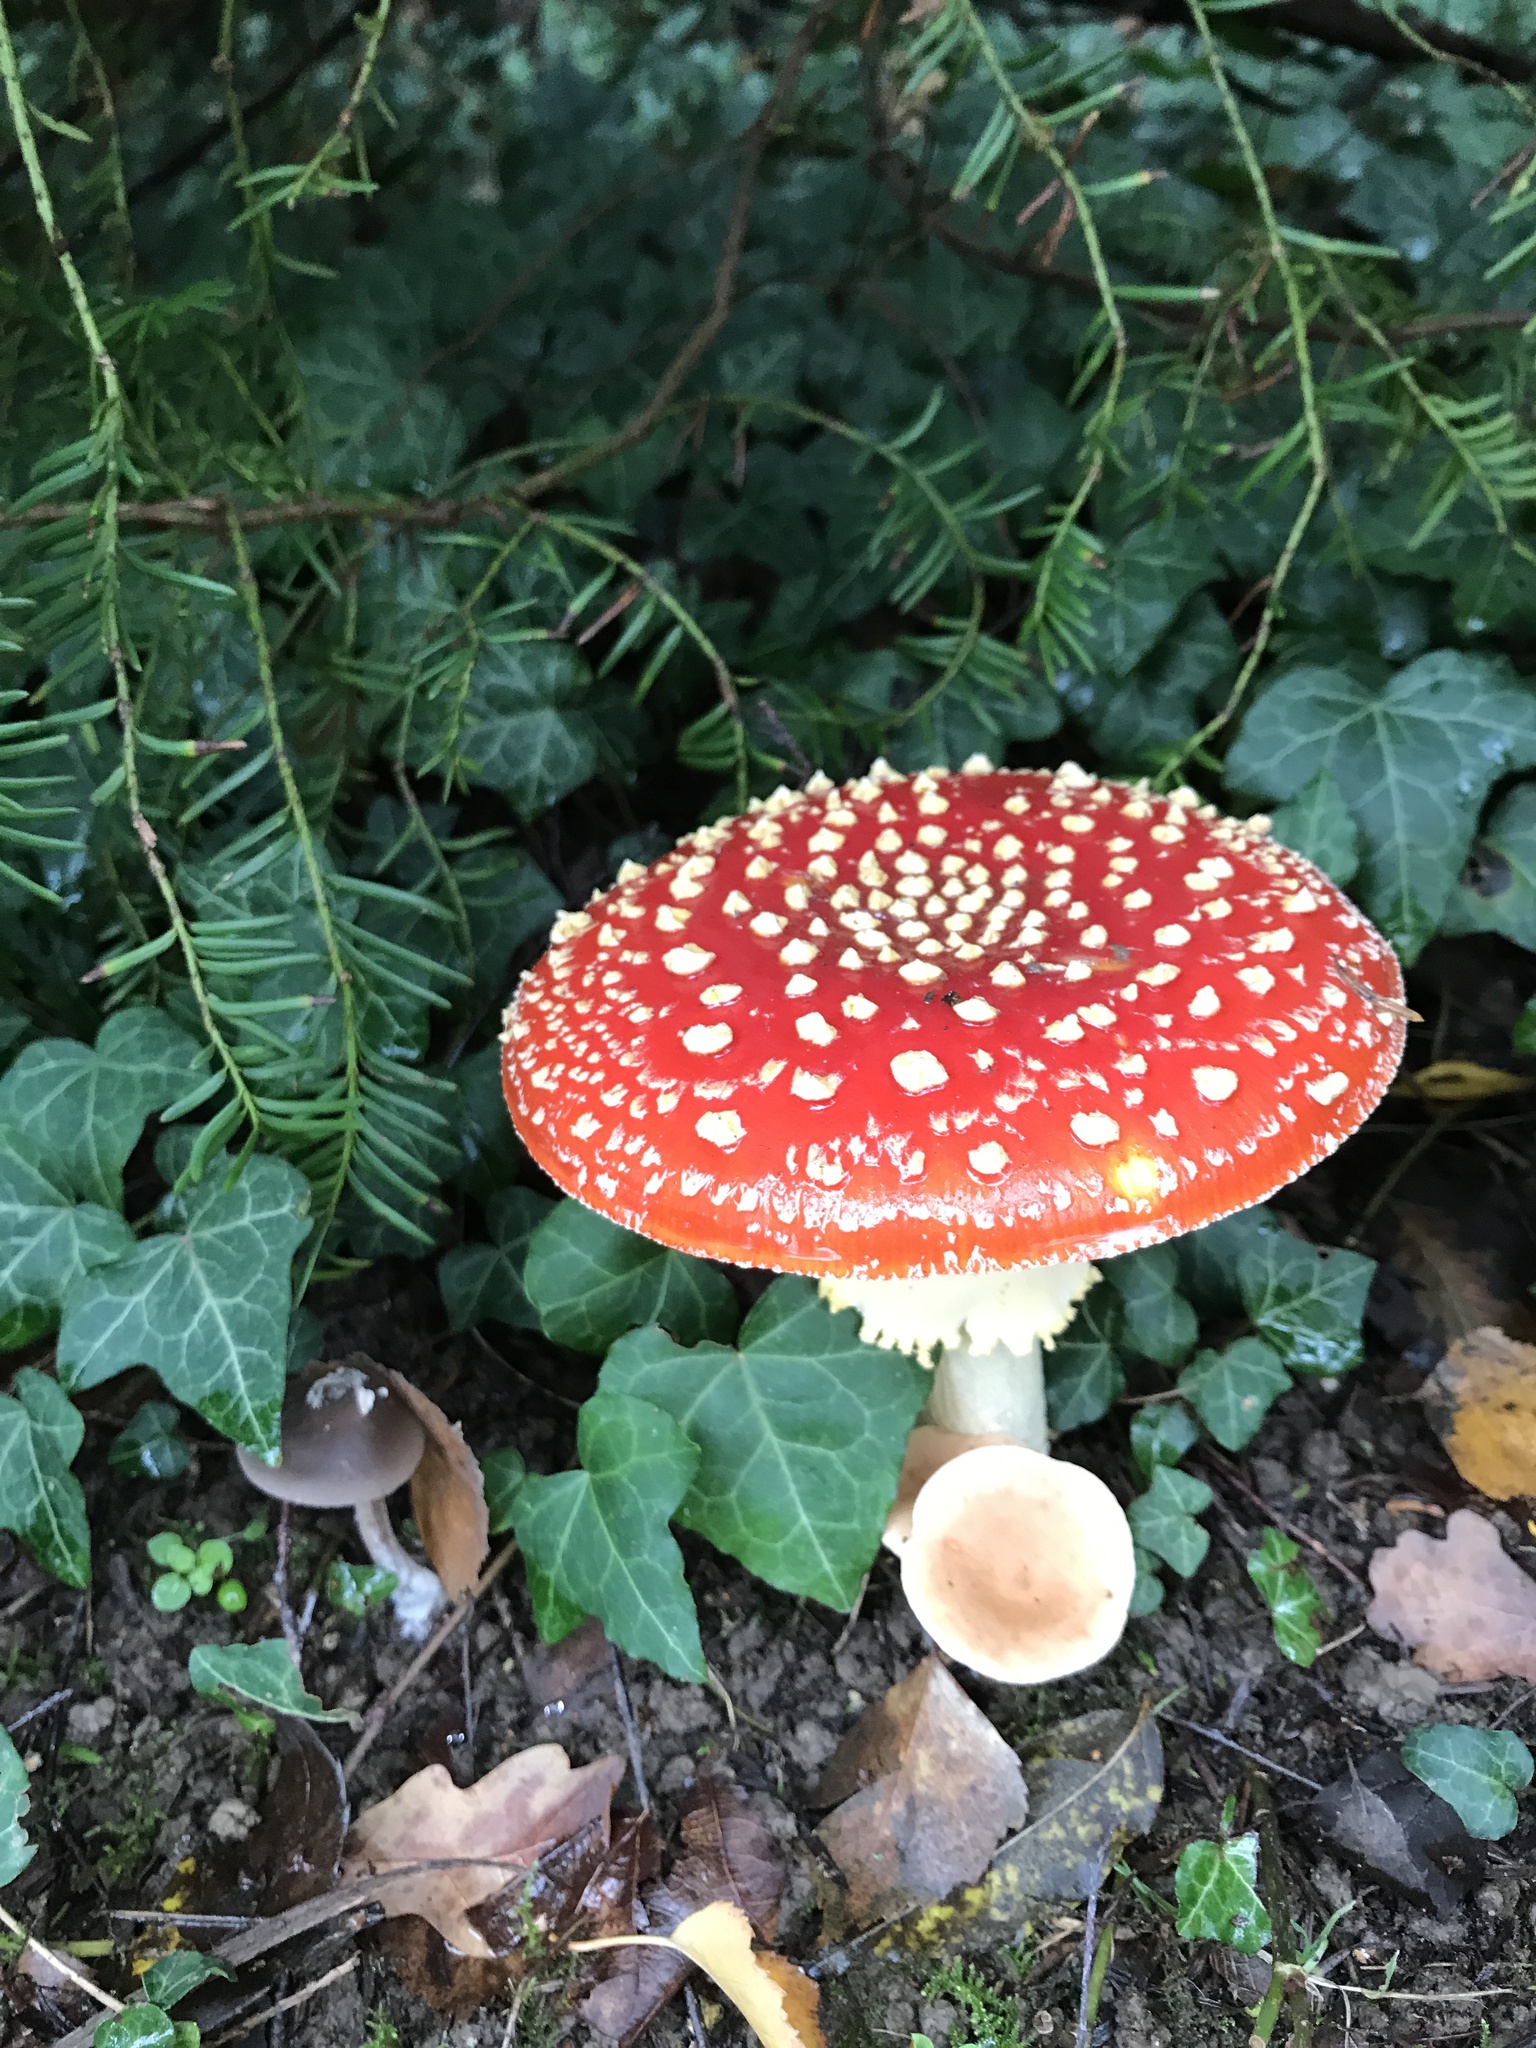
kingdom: Fungi
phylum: Basidiomycota
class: Agaricomycetes
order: Agaricales
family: Amanitaceae
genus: Amanita
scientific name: Amanita muscaria
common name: Fly agaric
